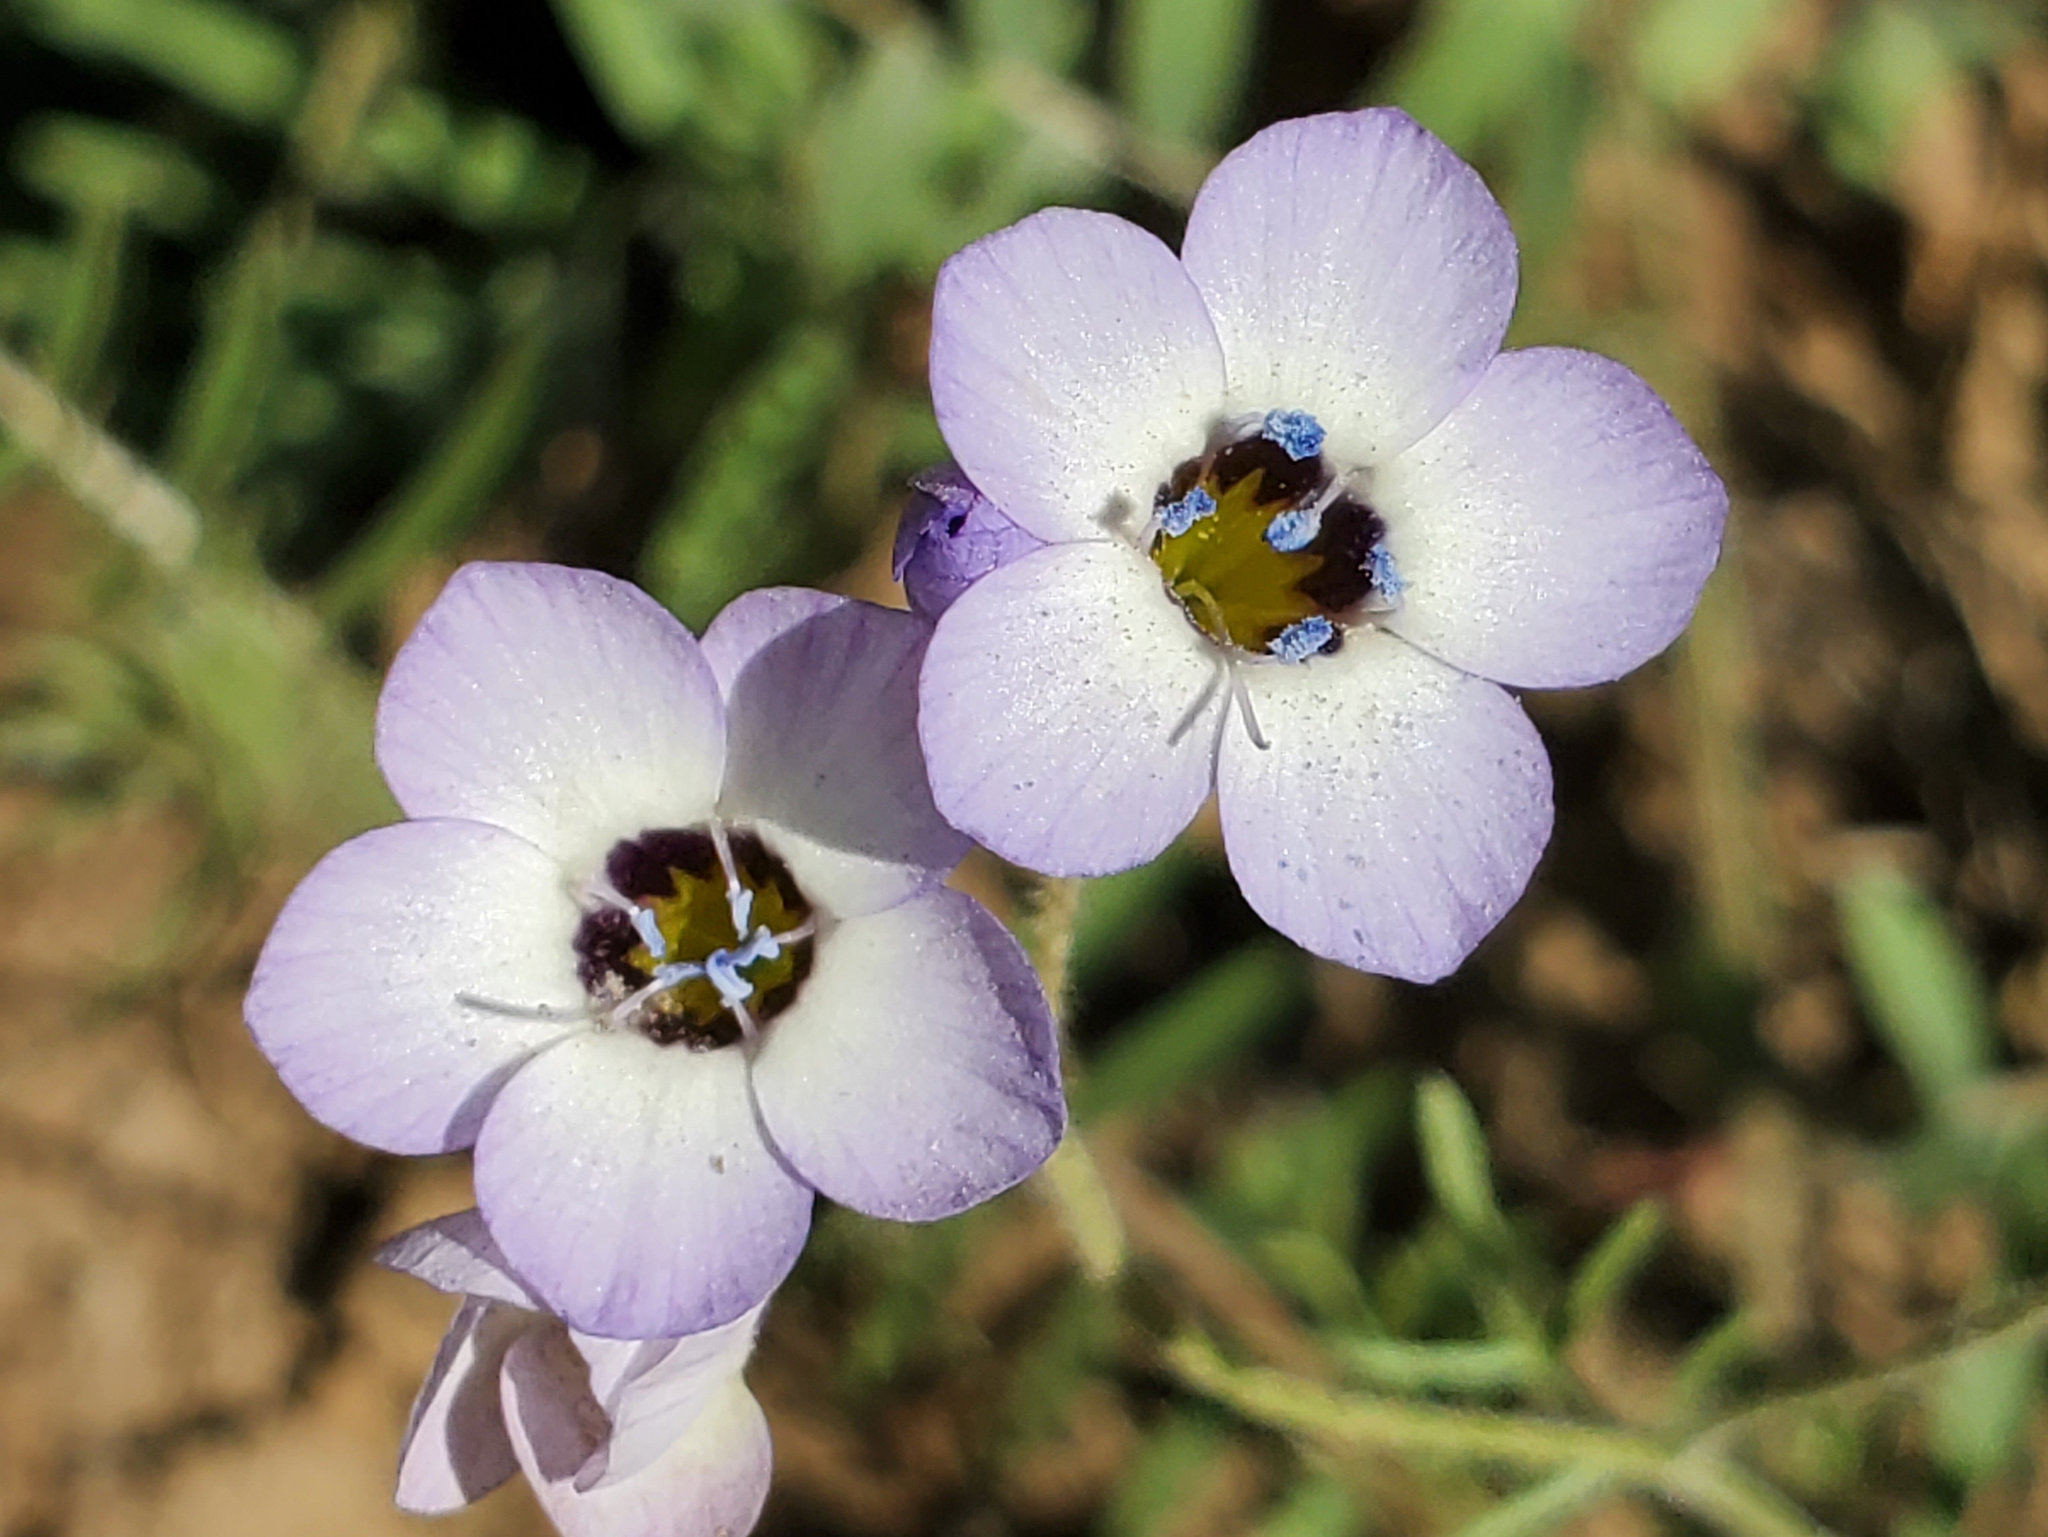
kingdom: Plantae
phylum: Tracheophyta
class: Magnoliopsida
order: Ericales
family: Polemoniaceae
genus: Gilia
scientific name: Gilia tricolor
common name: Bird's-eyes
